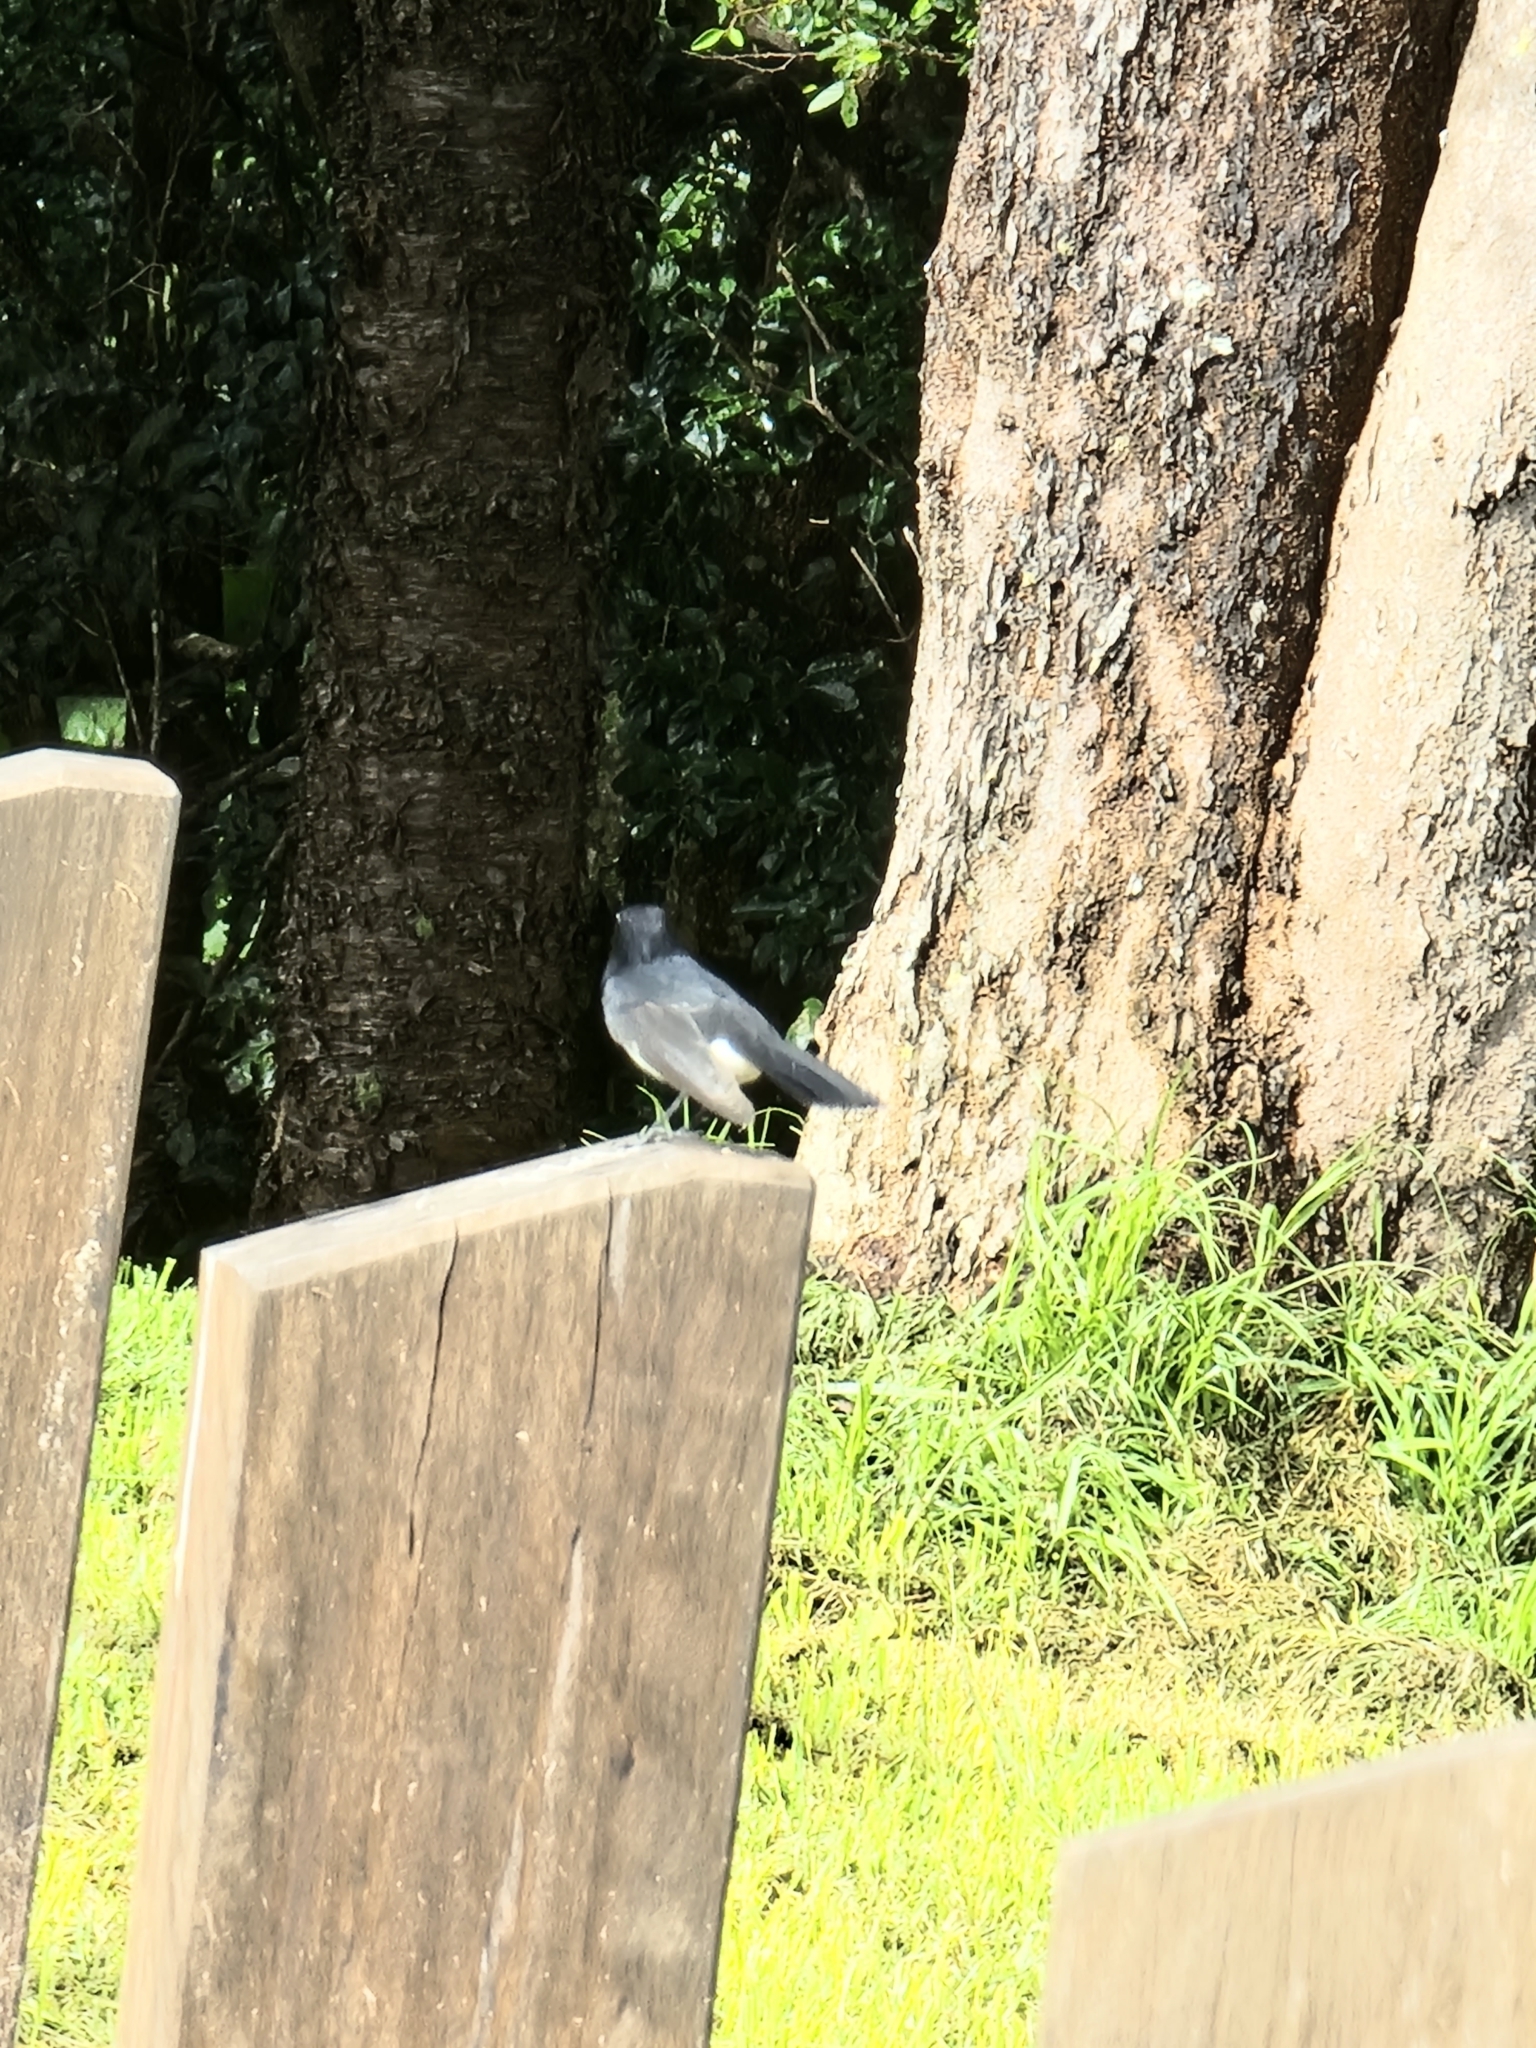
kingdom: Animalia
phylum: Chordata
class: Aves
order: Passeriformes
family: Rhipiduridae
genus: Rhipidura
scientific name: Rhipidura leucophrys
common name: Willie wagtail
